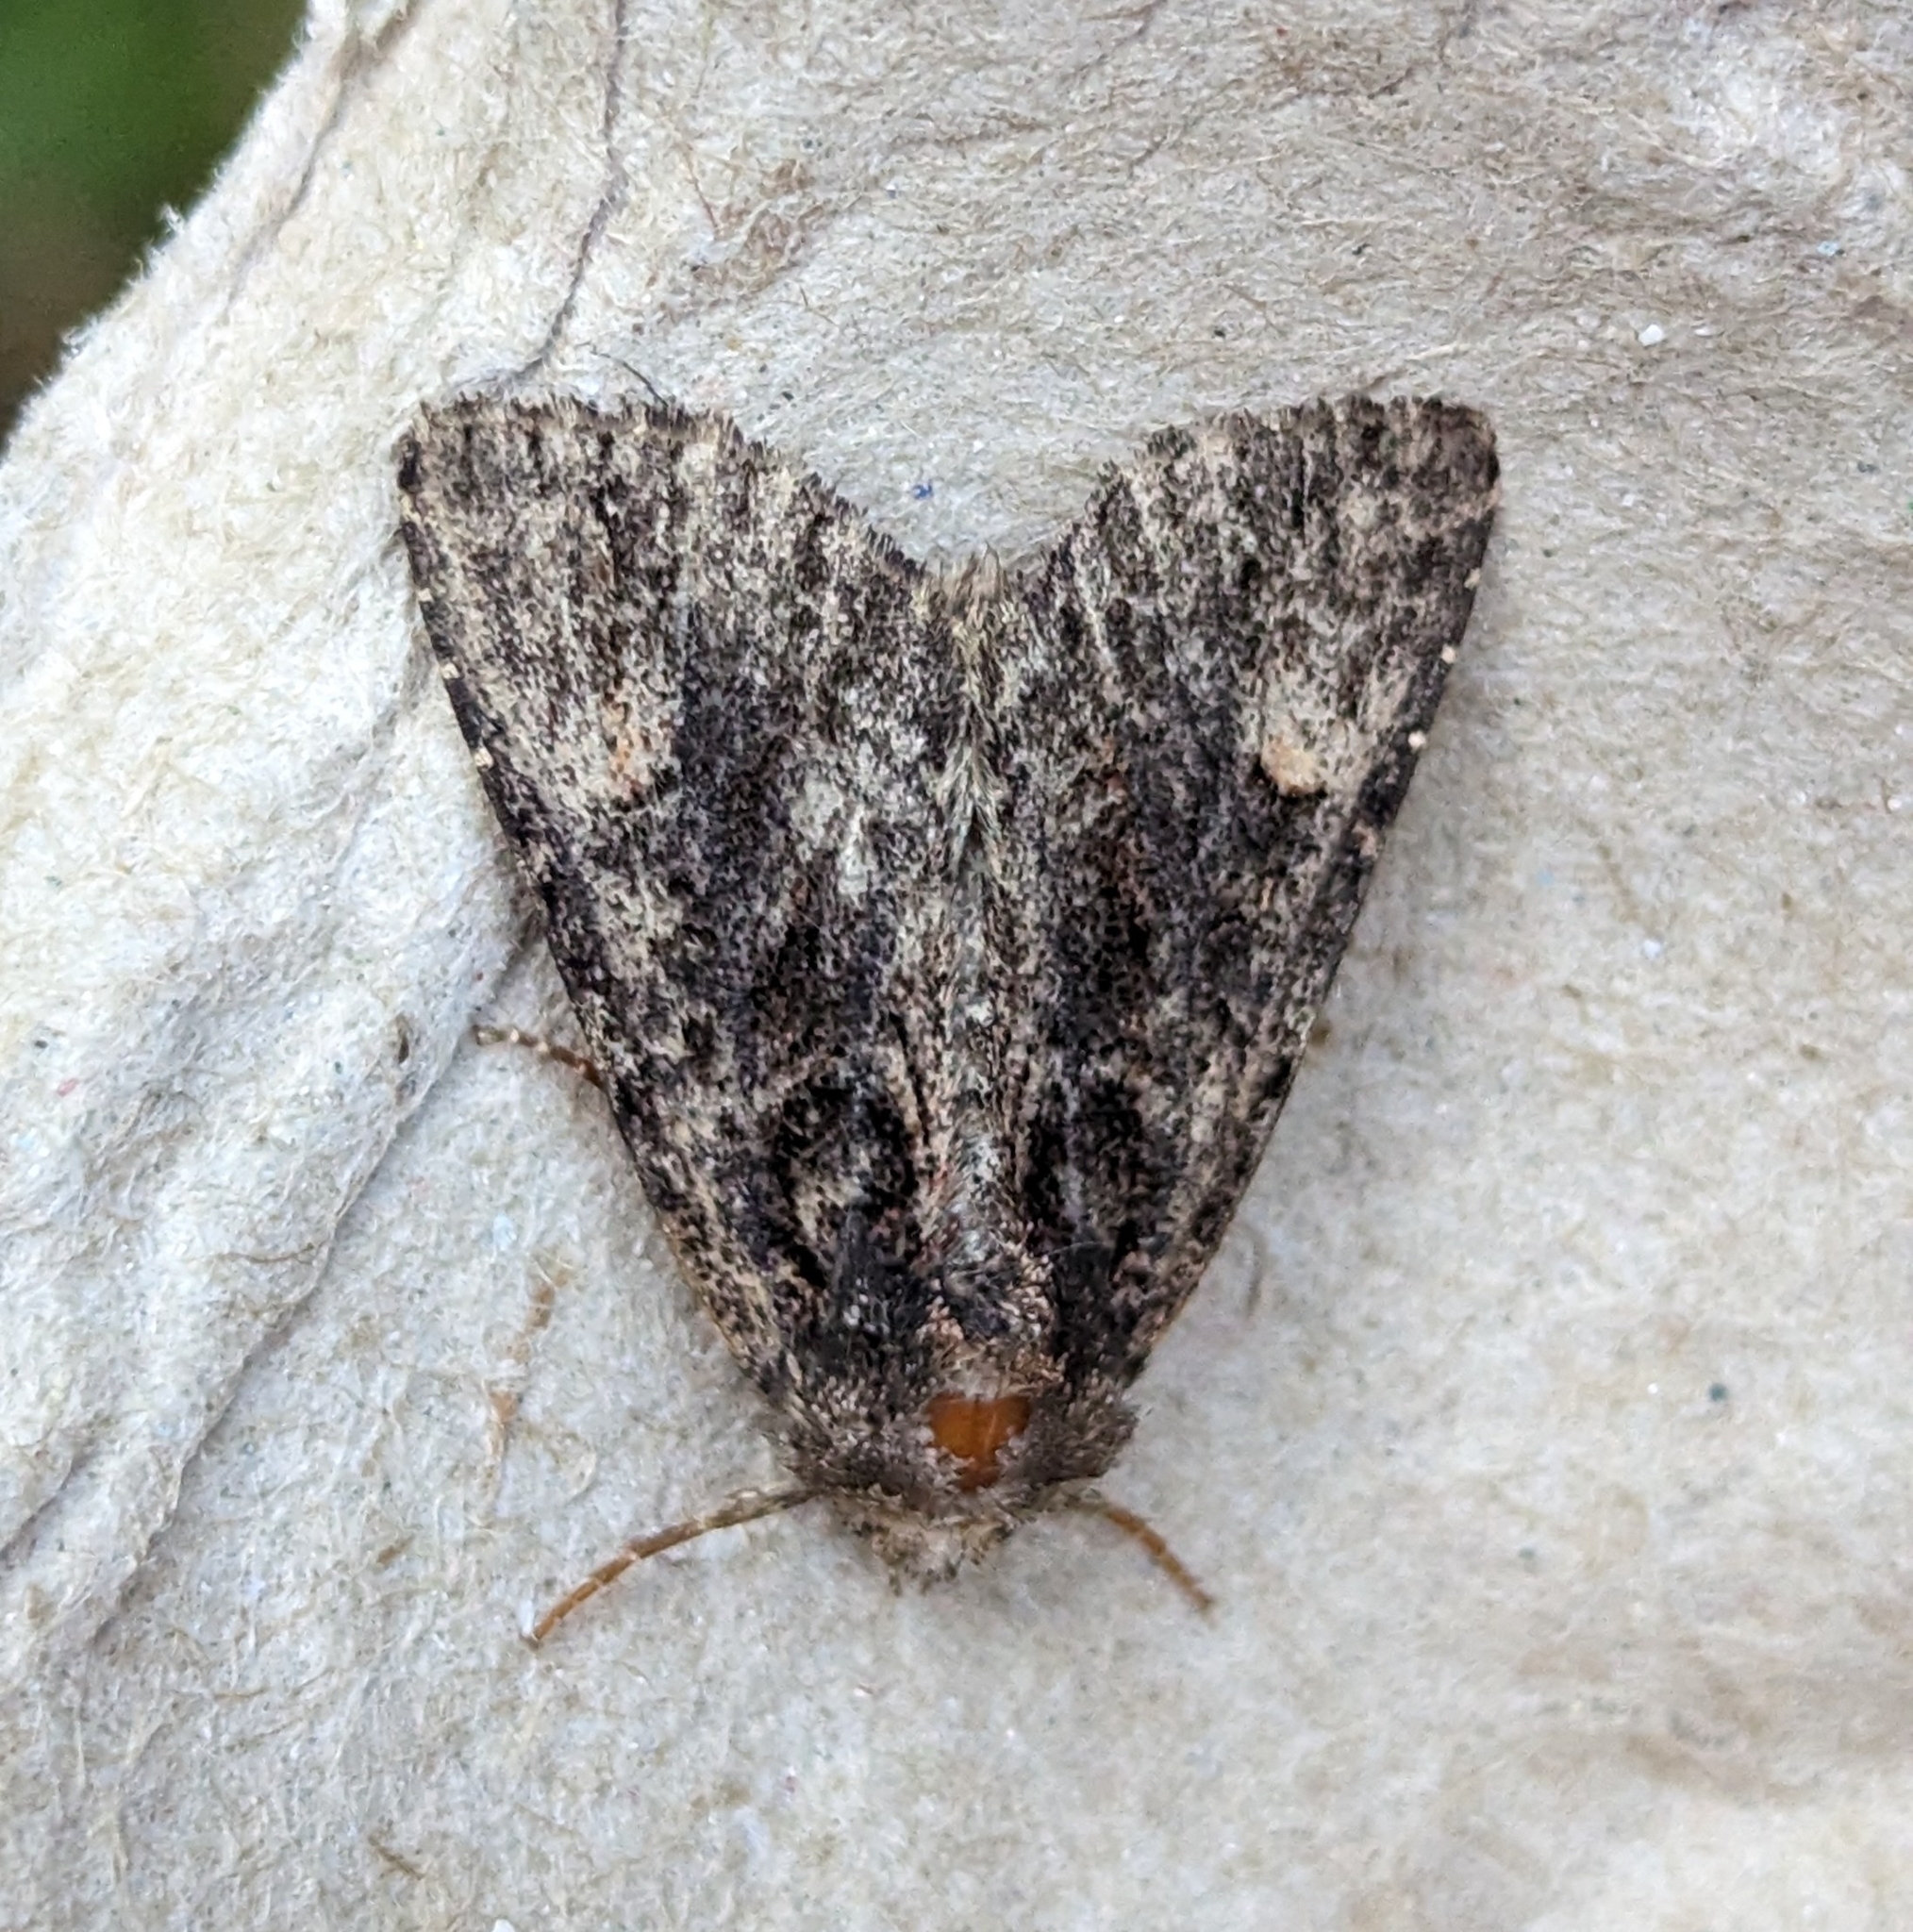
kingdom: Animalia
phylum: Arthropoda
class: Insecta
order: Lepidoptera
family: Noctuidae
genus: Aseptis
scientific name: Aseptis binotata
